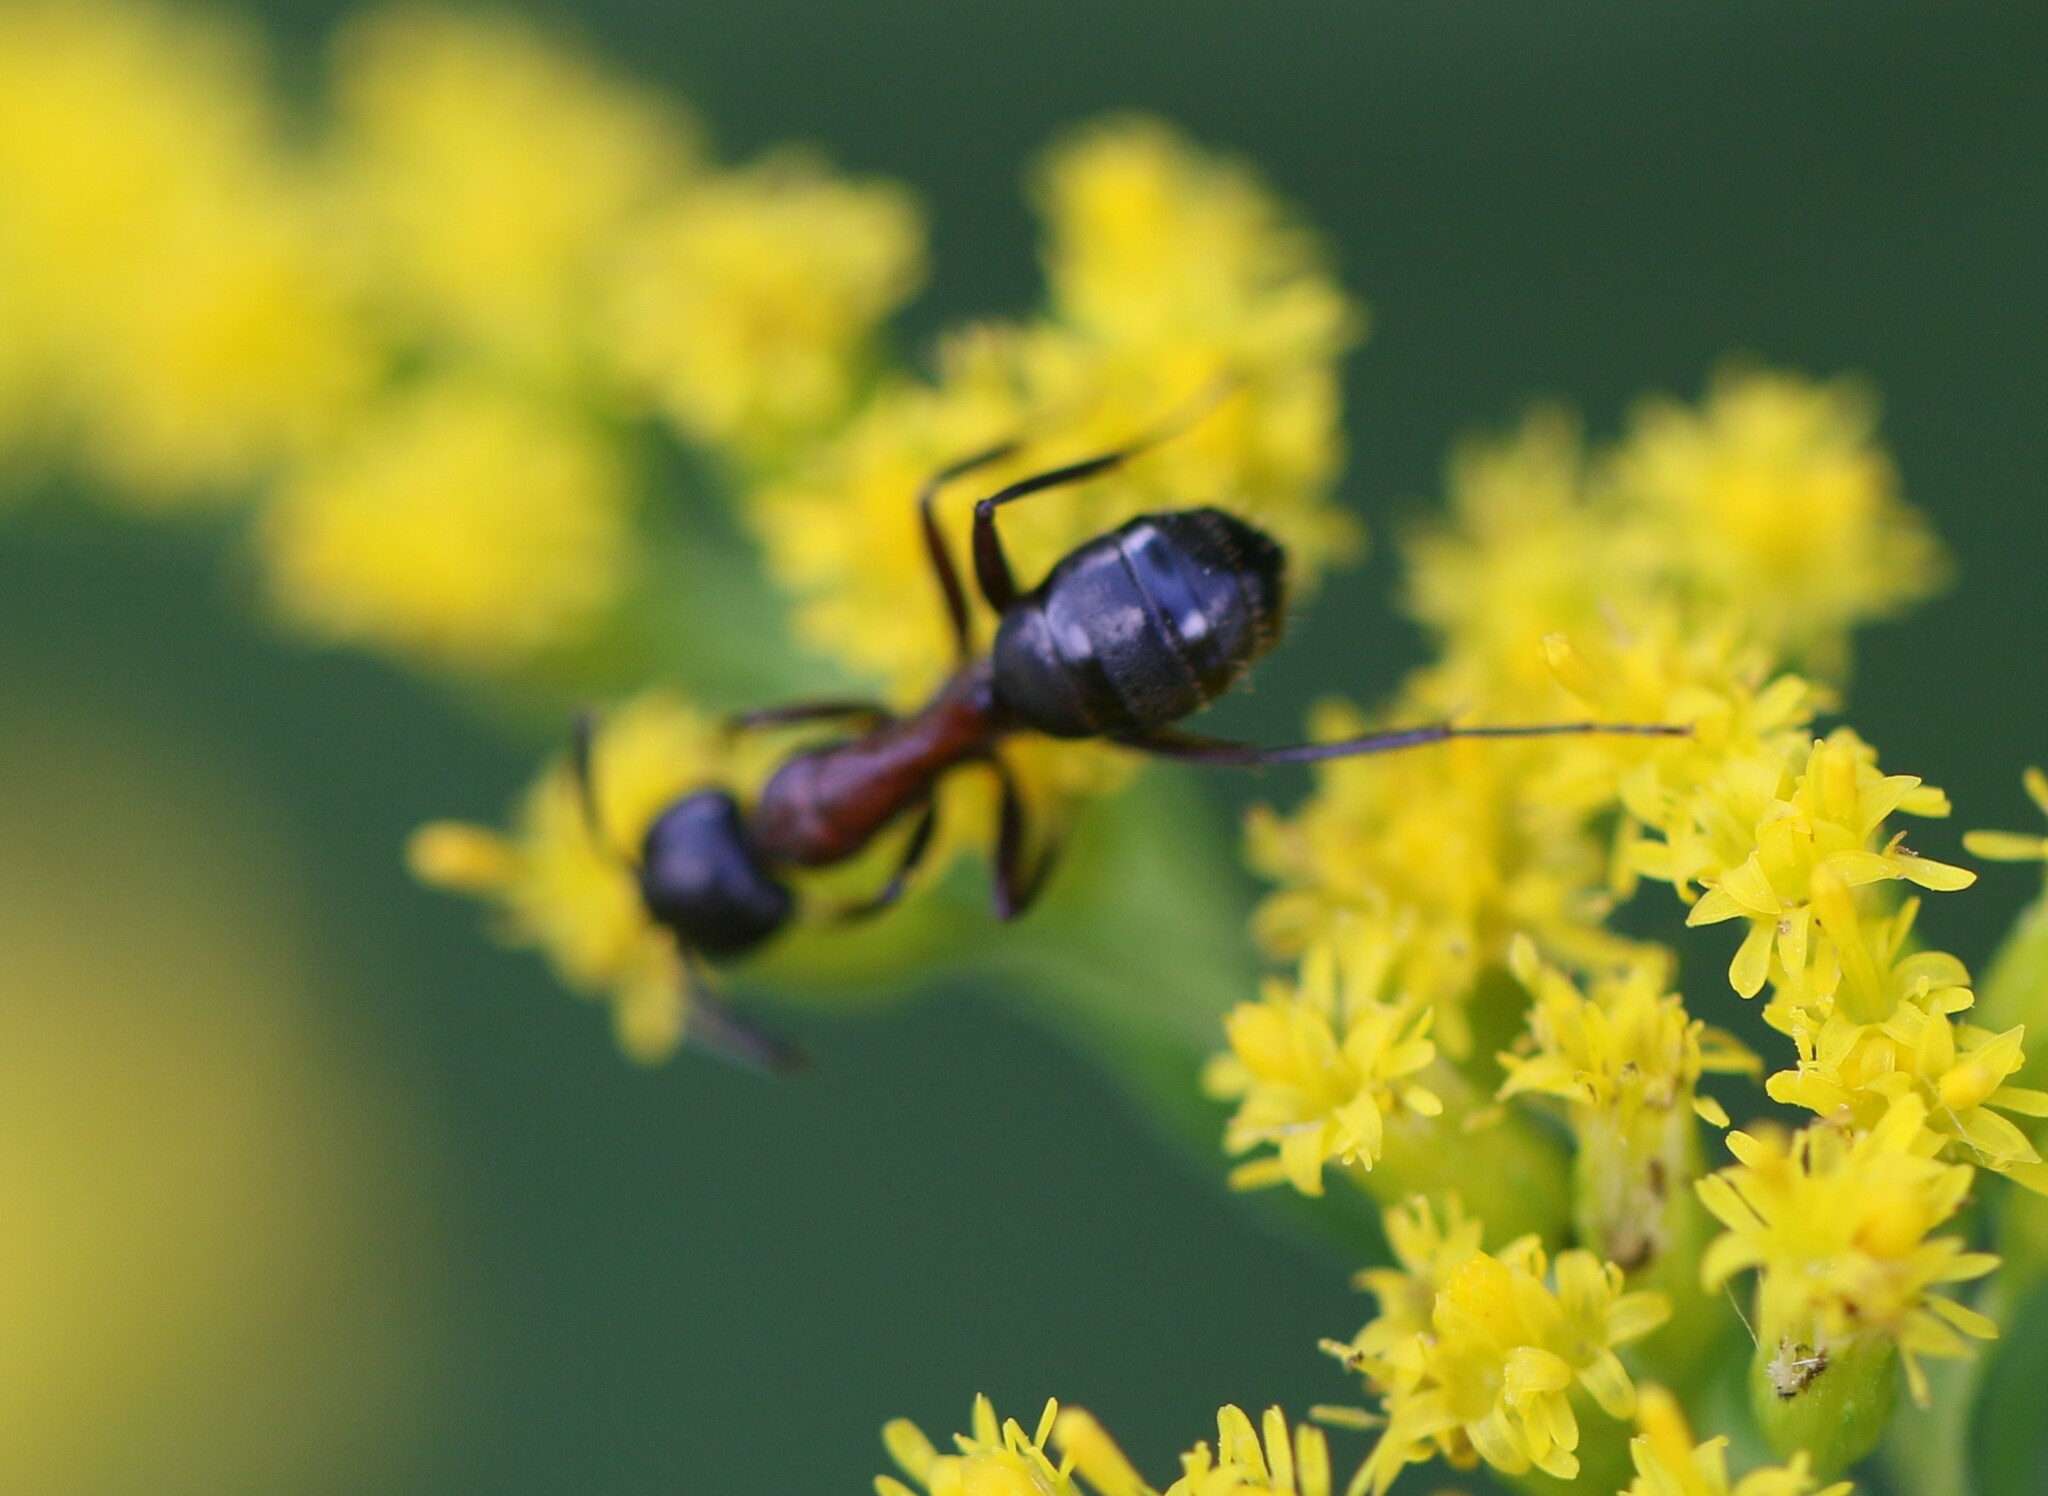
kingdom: Animalia
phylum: Arthropoda
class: Insecta
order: Hymenoptera
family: Formicidae
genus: Camponotus
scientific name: Camponotus novaeboracensis
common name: New york carpenter ant
